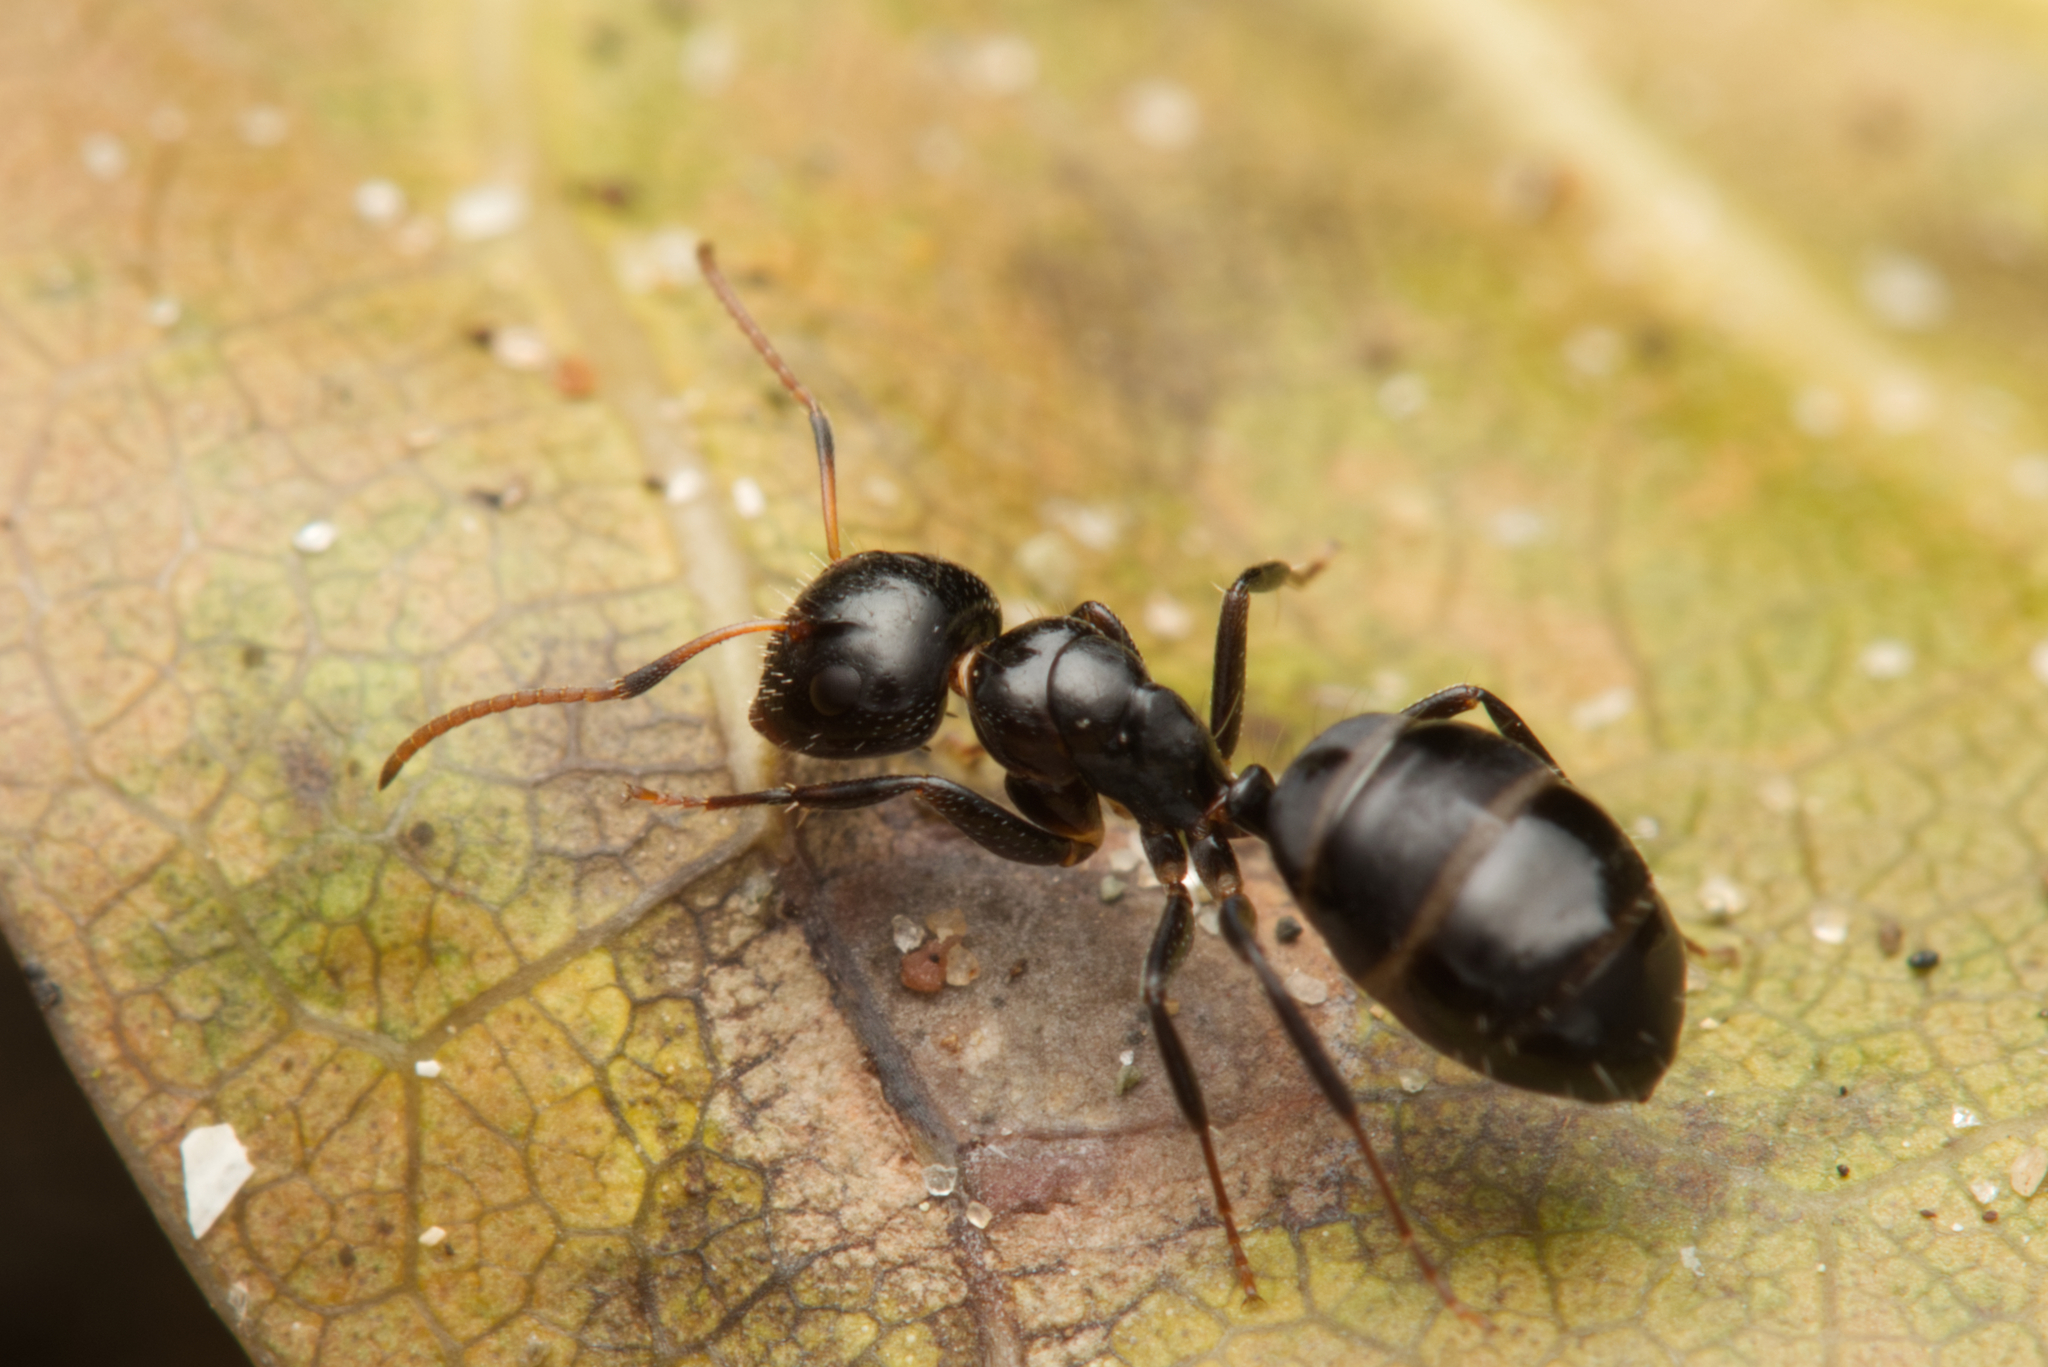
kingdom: Animalia
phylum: Arthropoda
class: Insecta
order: Hymenoptera
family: Formicidae
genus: Camponotus
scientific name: Camponotus mackayensis
